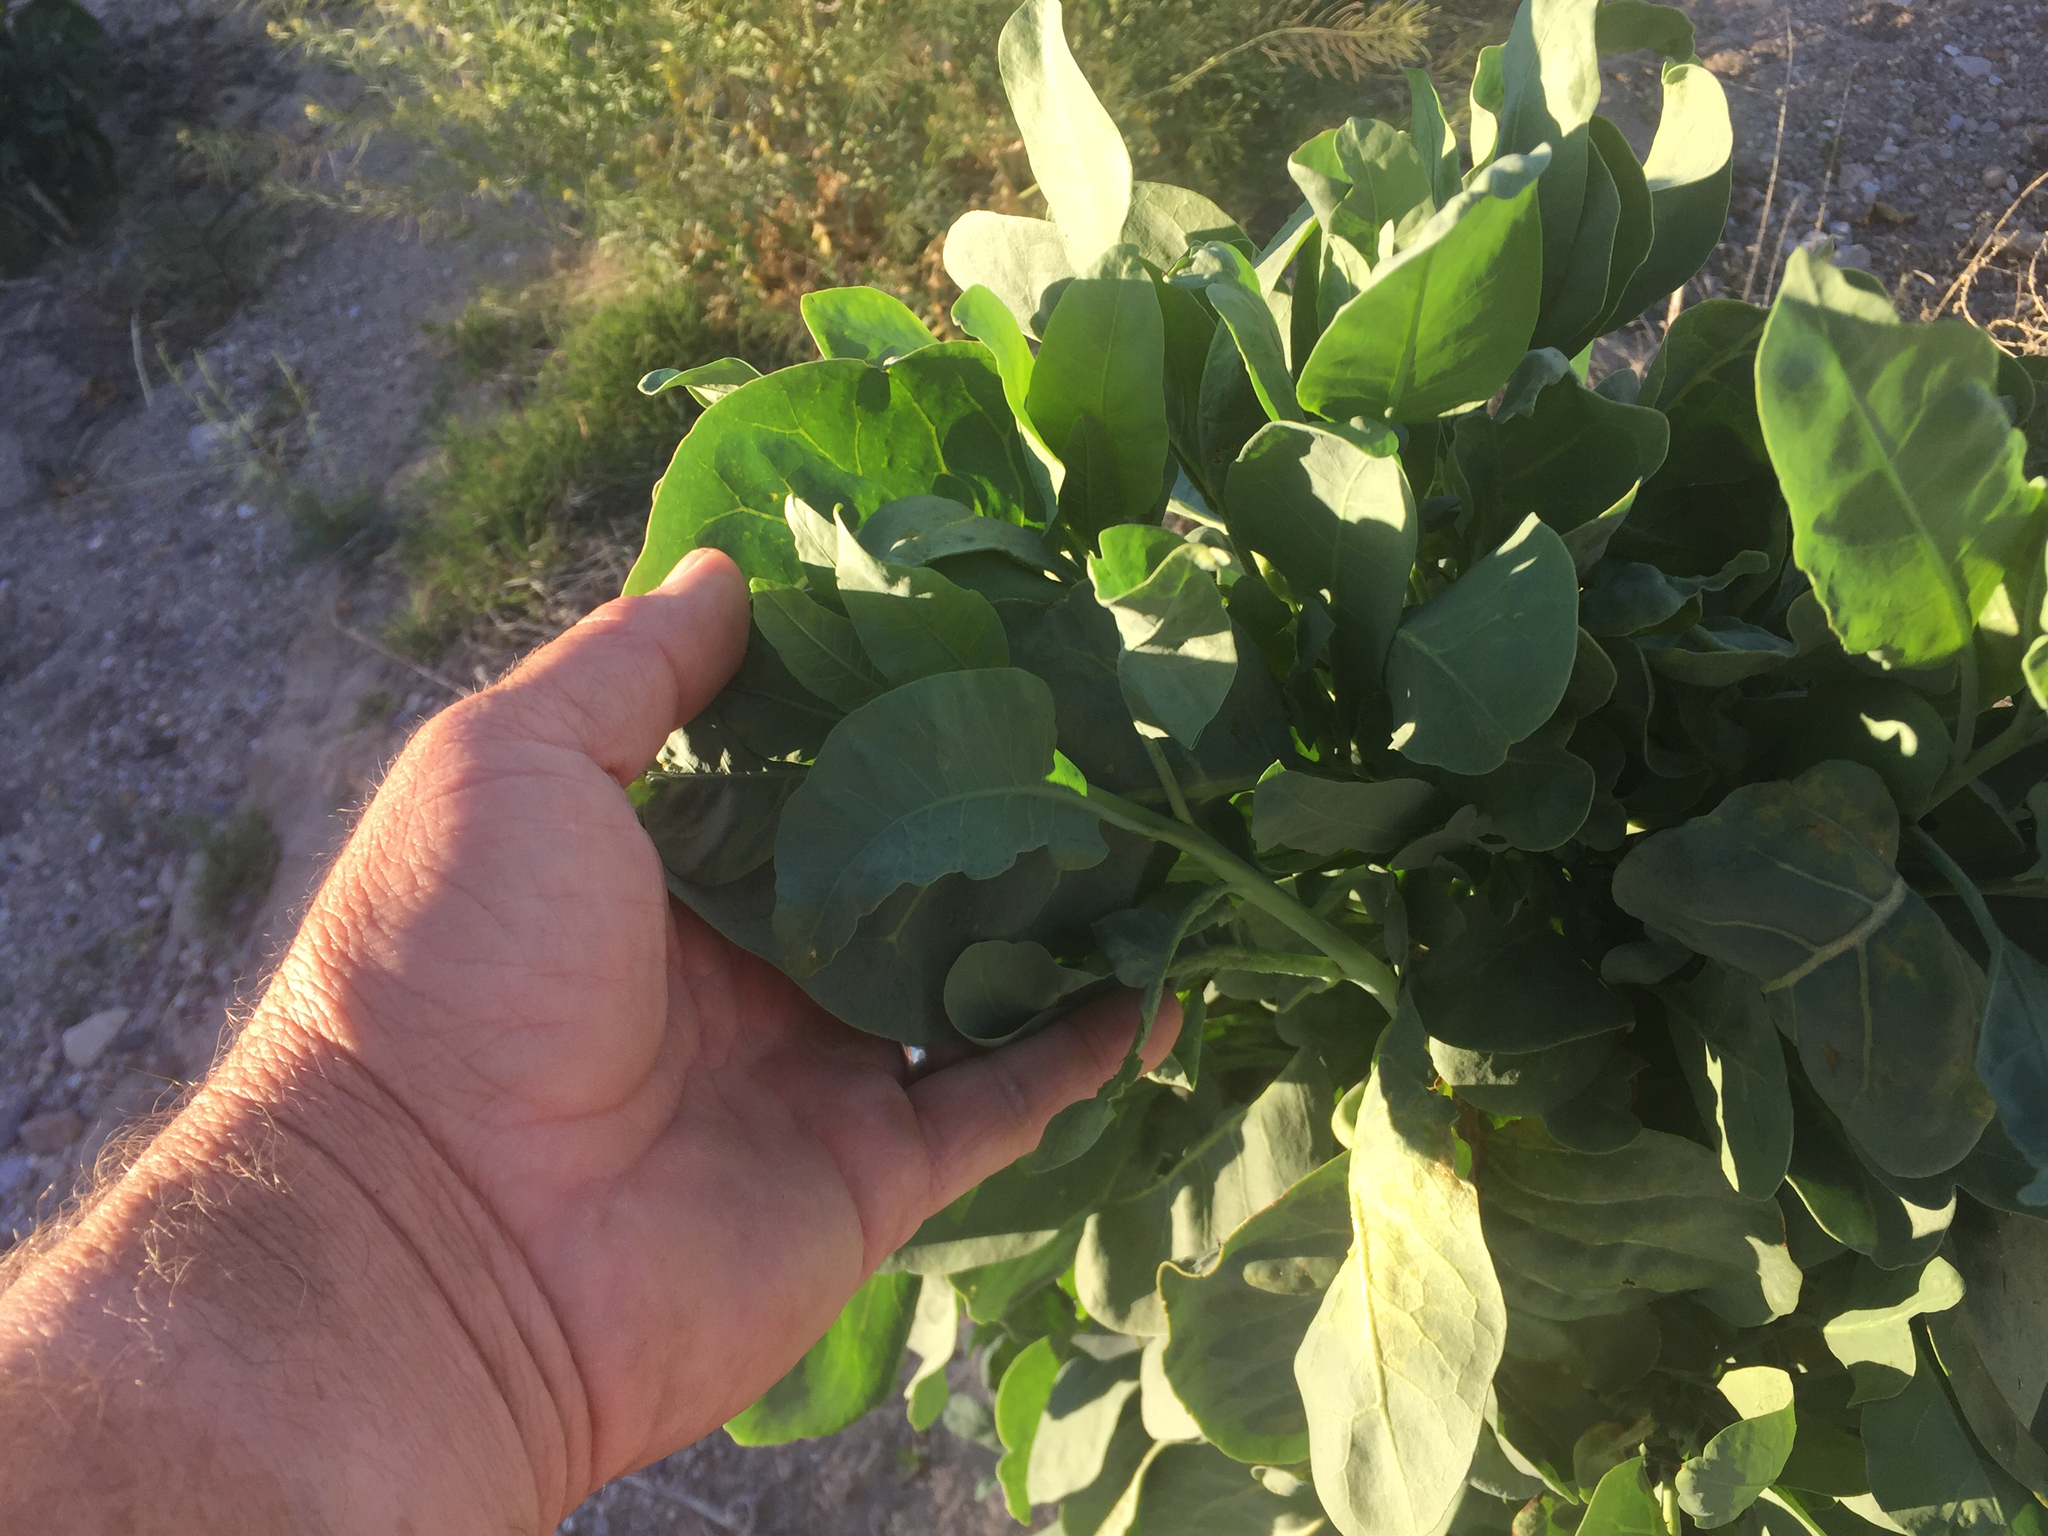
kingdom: Plantae
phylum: Tracheophyta
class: Magnoliopsida
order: Solanales
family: Solanaceae
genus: Nicotiana
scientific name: Nicotiana glauca
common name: Tree tobacco
